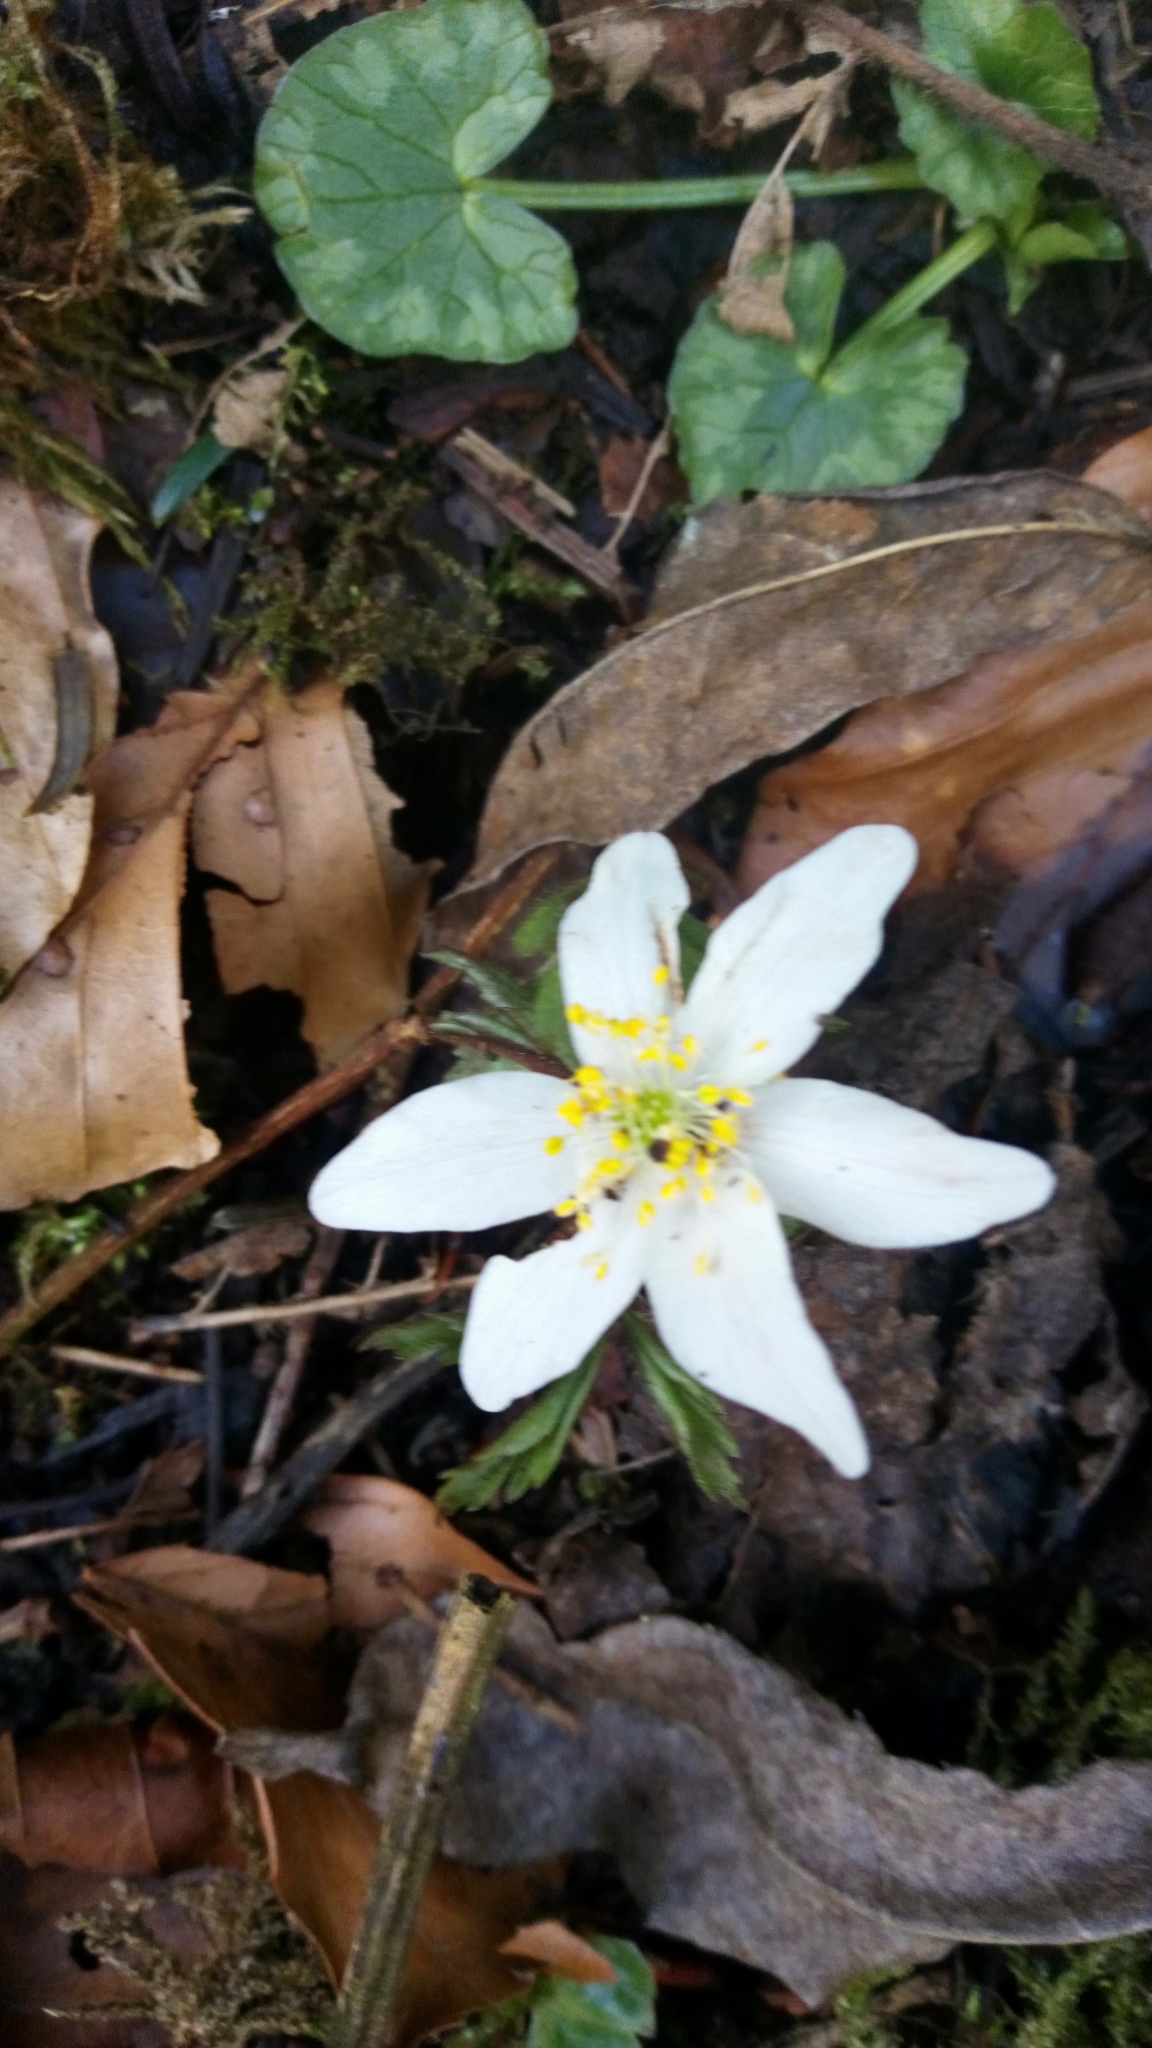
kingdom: Plantae
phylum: Tracheophyta
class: Magnoliopsida
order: Ranunculales
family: Ranunculaceae
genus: Anemone
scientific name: Anemone nemorosa
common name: Wood anemone
